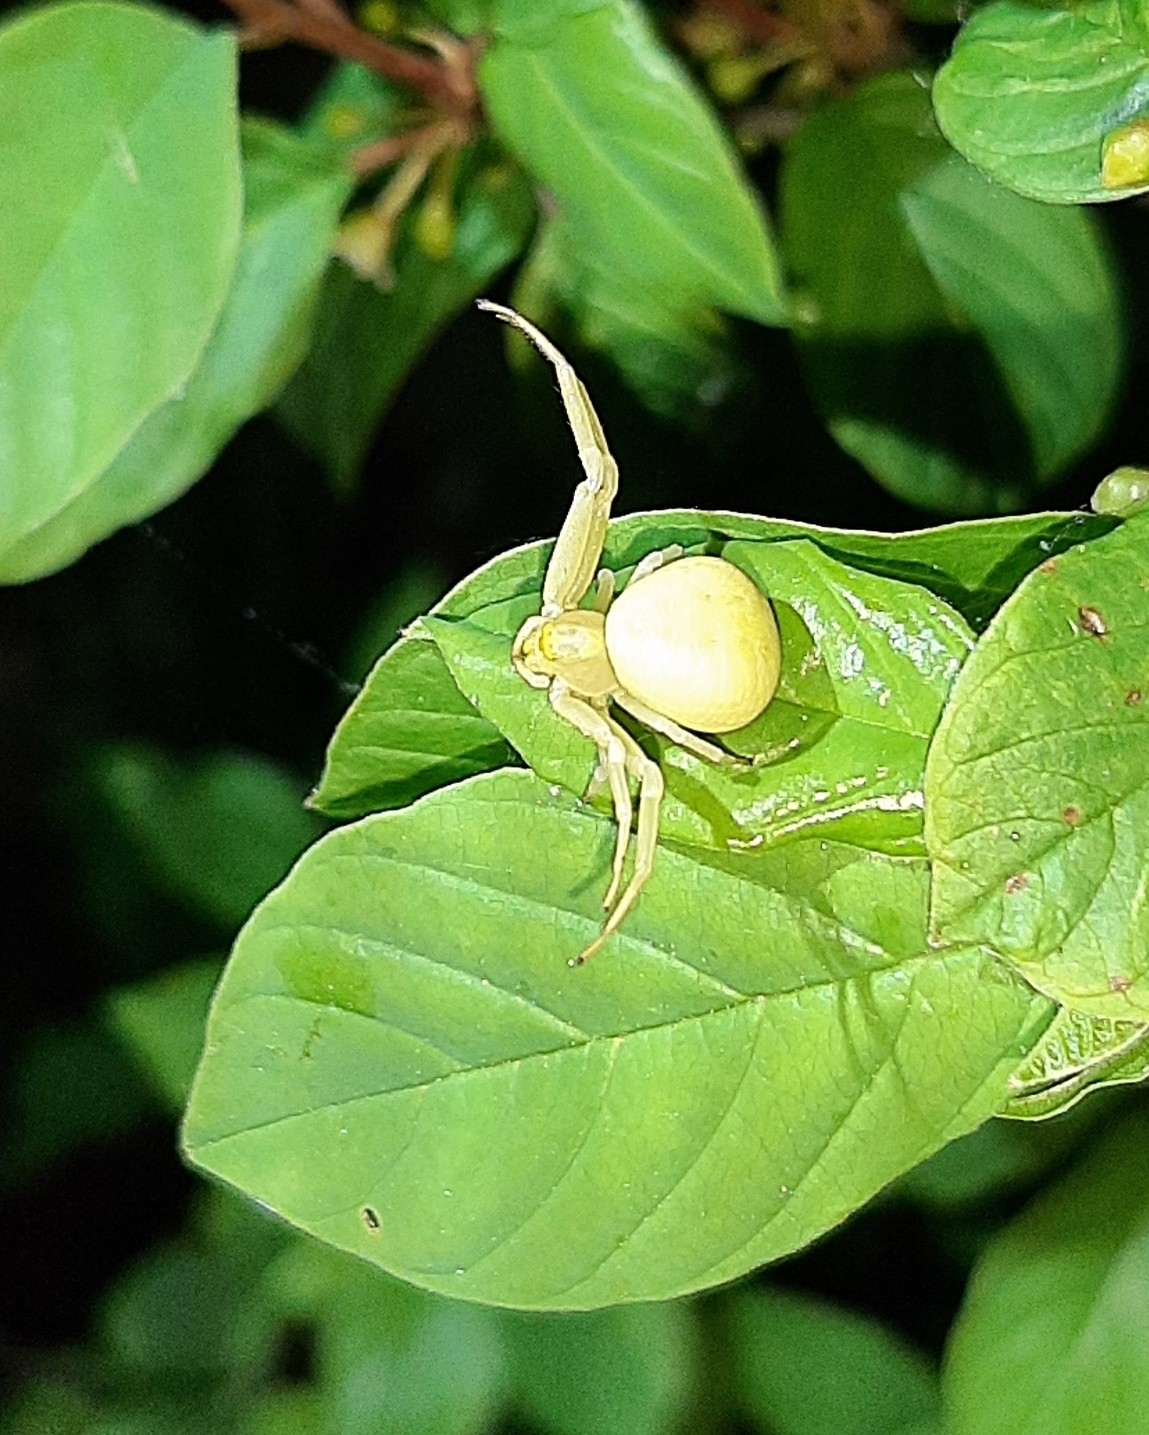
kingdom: Animalia
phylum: Arthropoda
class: Arachnida
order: Araneae
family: Thomisidae
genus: Misumena
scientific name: Misumena vatia
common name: Goldenrod crab spider
